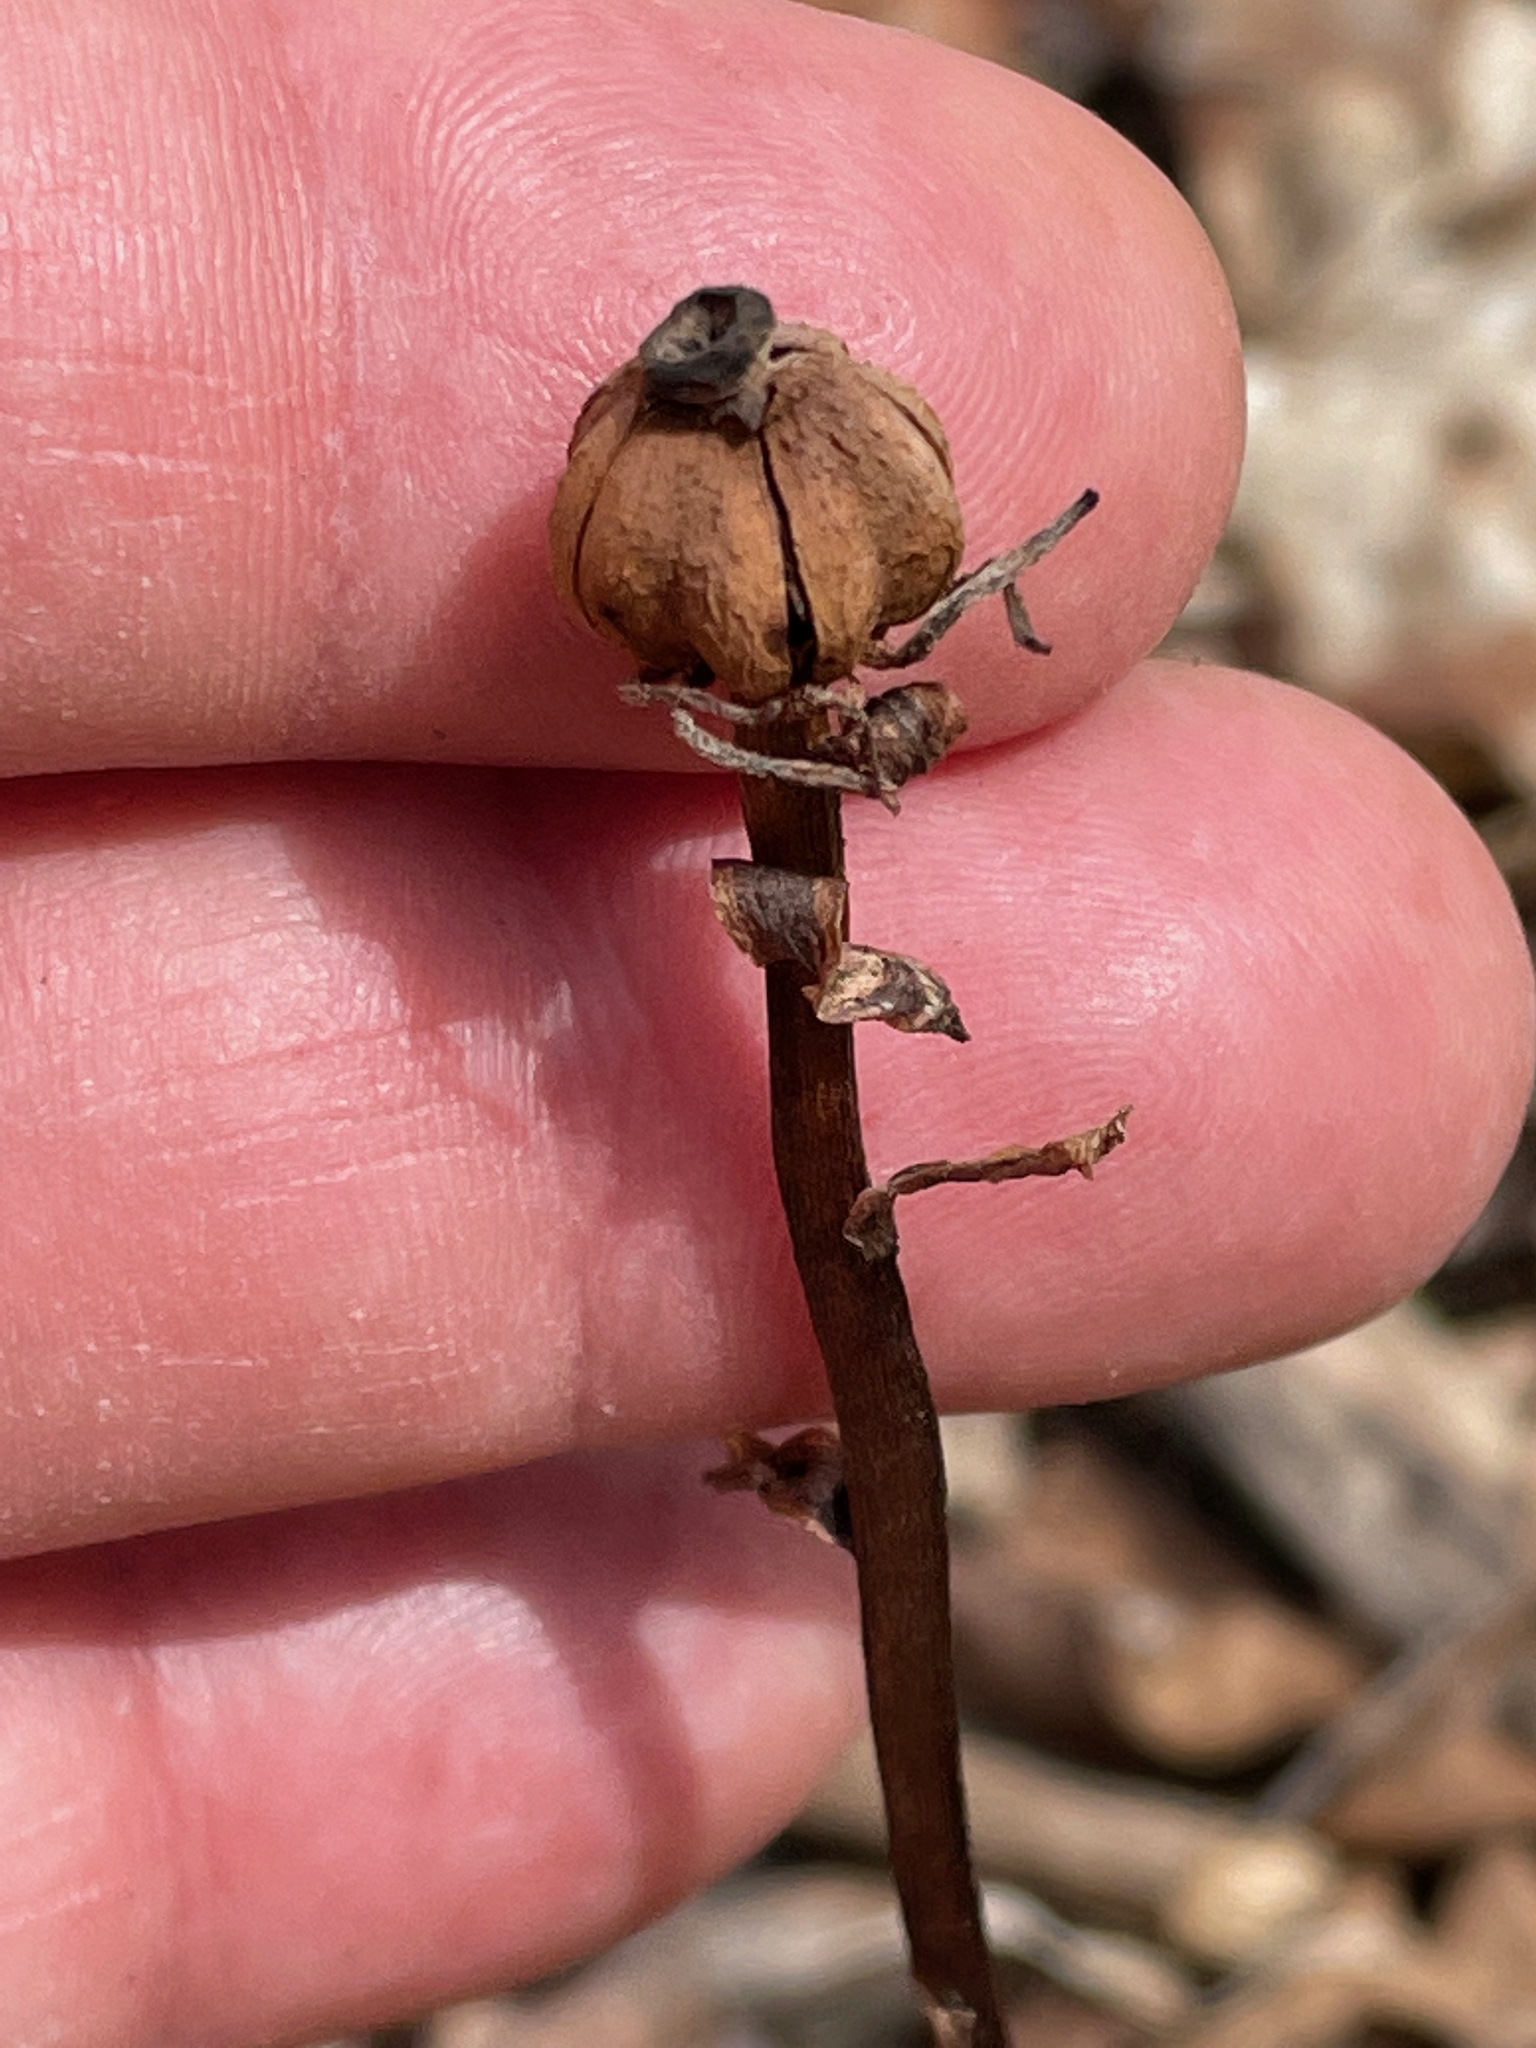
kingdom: Plantae
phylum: Tracheophyta
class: Magnoliopsida
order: Ericales
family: Ericaceae
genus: Monotropa
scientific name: Monotropa uniflora
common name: Convulsion root
